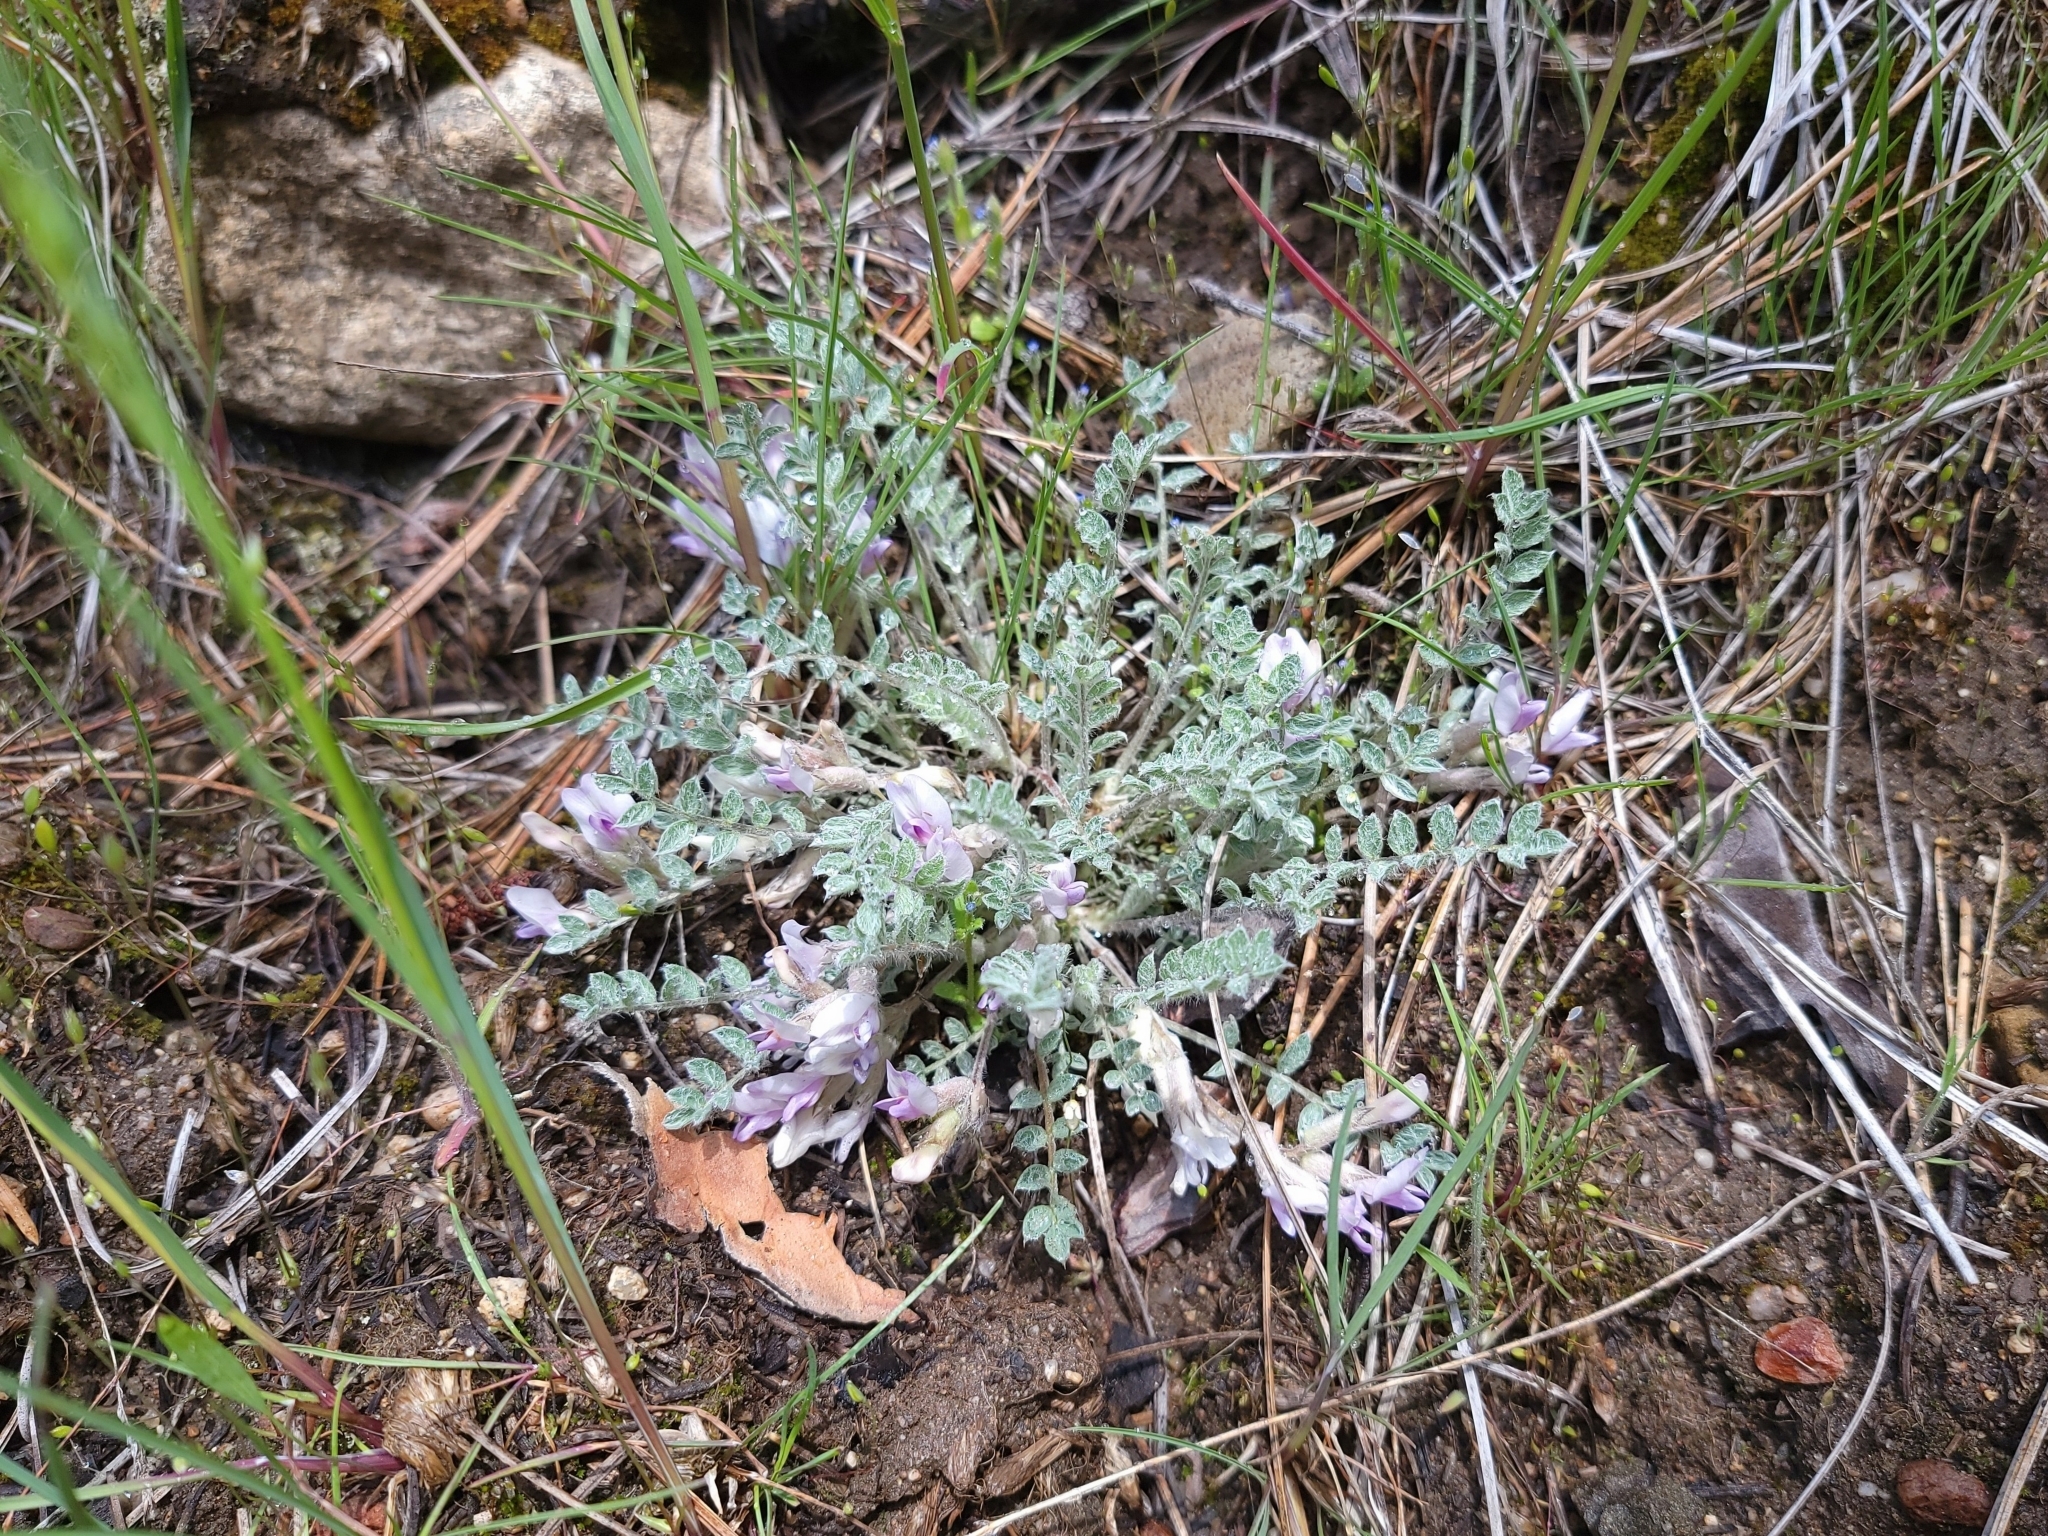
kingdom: Plantae
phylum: Tracheophyta
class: Magnoliopsida
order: Fabales
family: Fabaceae
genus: Astragalus
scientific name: Astragalus purshii
